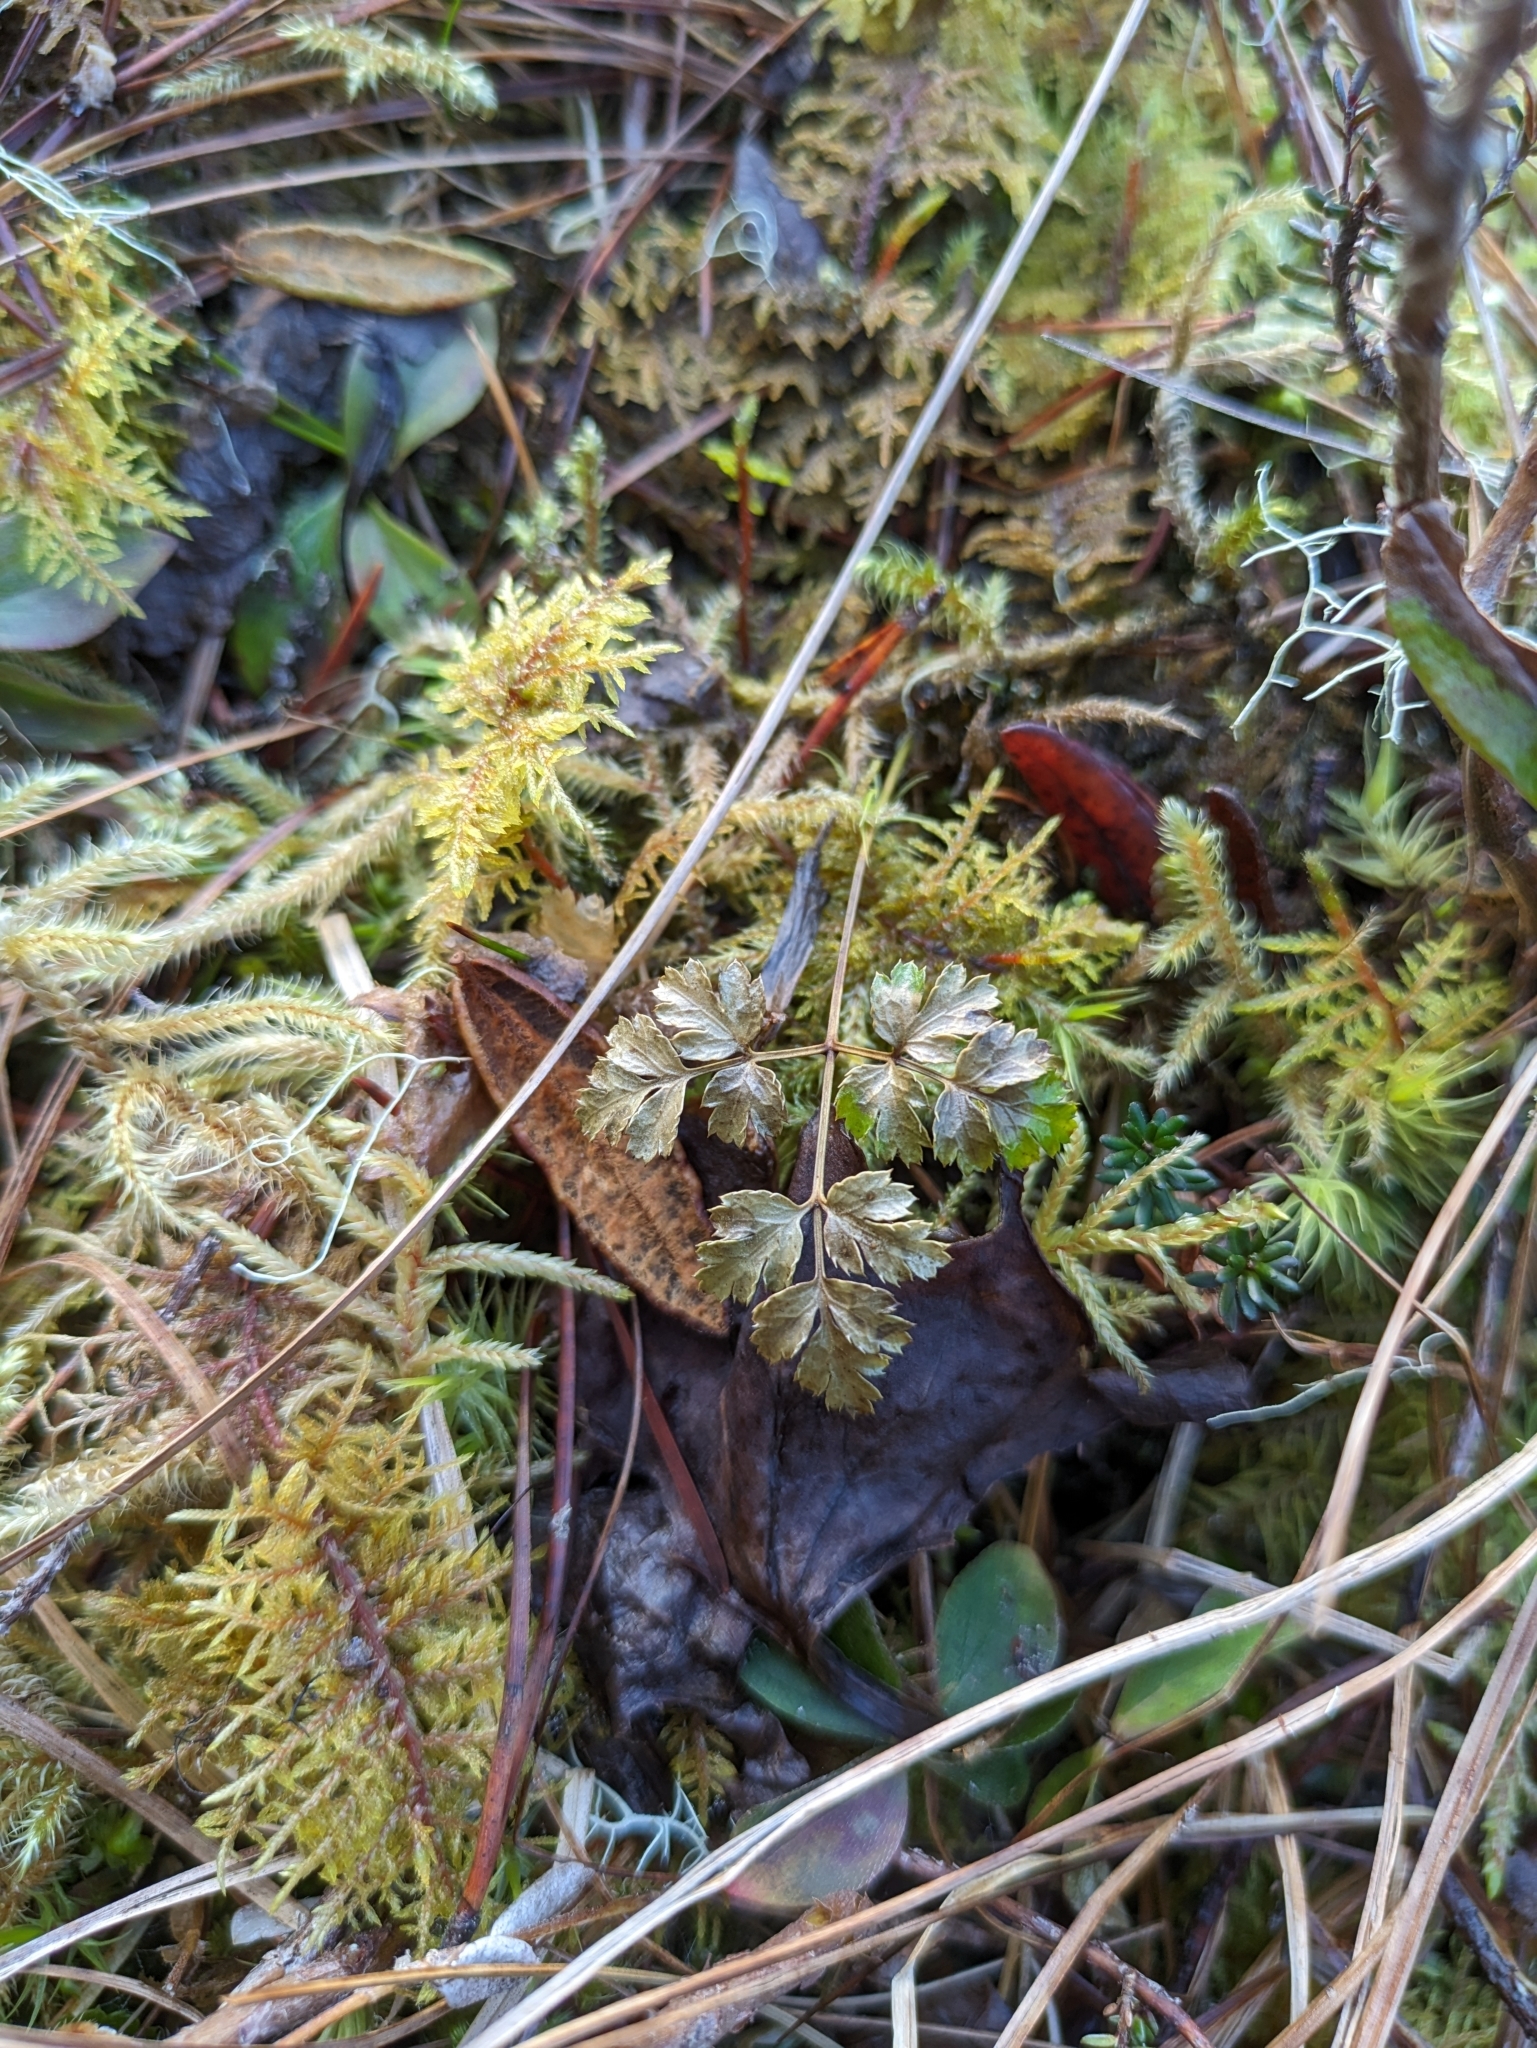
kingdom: Plantae
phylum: Tracheophyta
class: Magnoliopsida
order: Ranunculales
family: Ranunculaceae
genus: Coptis
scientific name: Coptis aspleniifolia
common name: Fern-leaved goldthread
